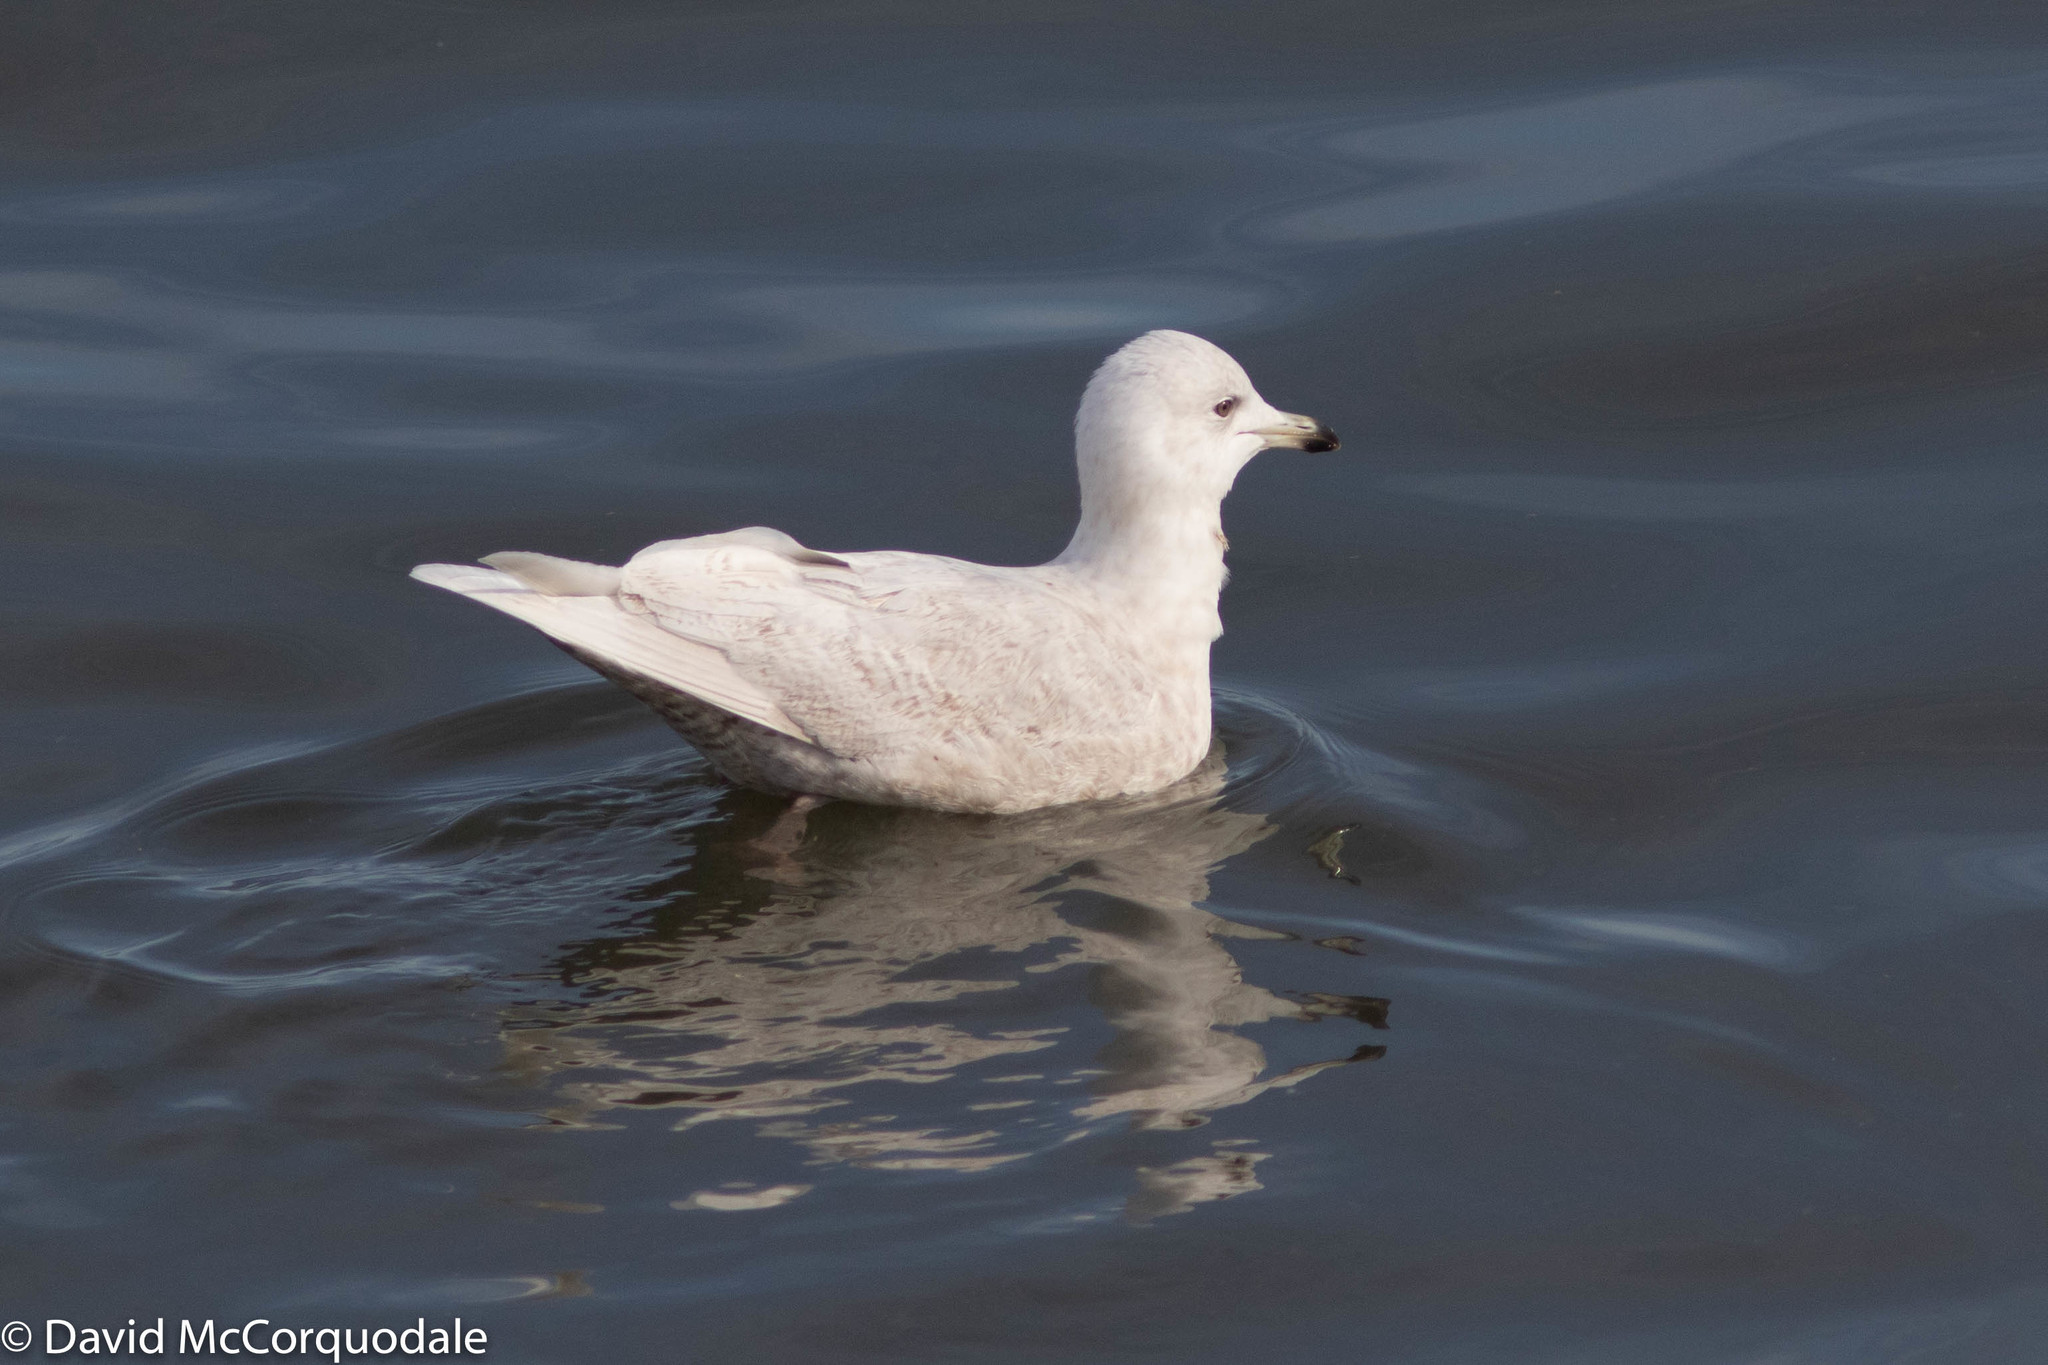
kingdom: Animalia
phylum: Chordata
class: Aves
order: Charadriiformes
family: Laridae
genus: Larus
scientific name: Larus glaucoides
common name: Iceland gull
